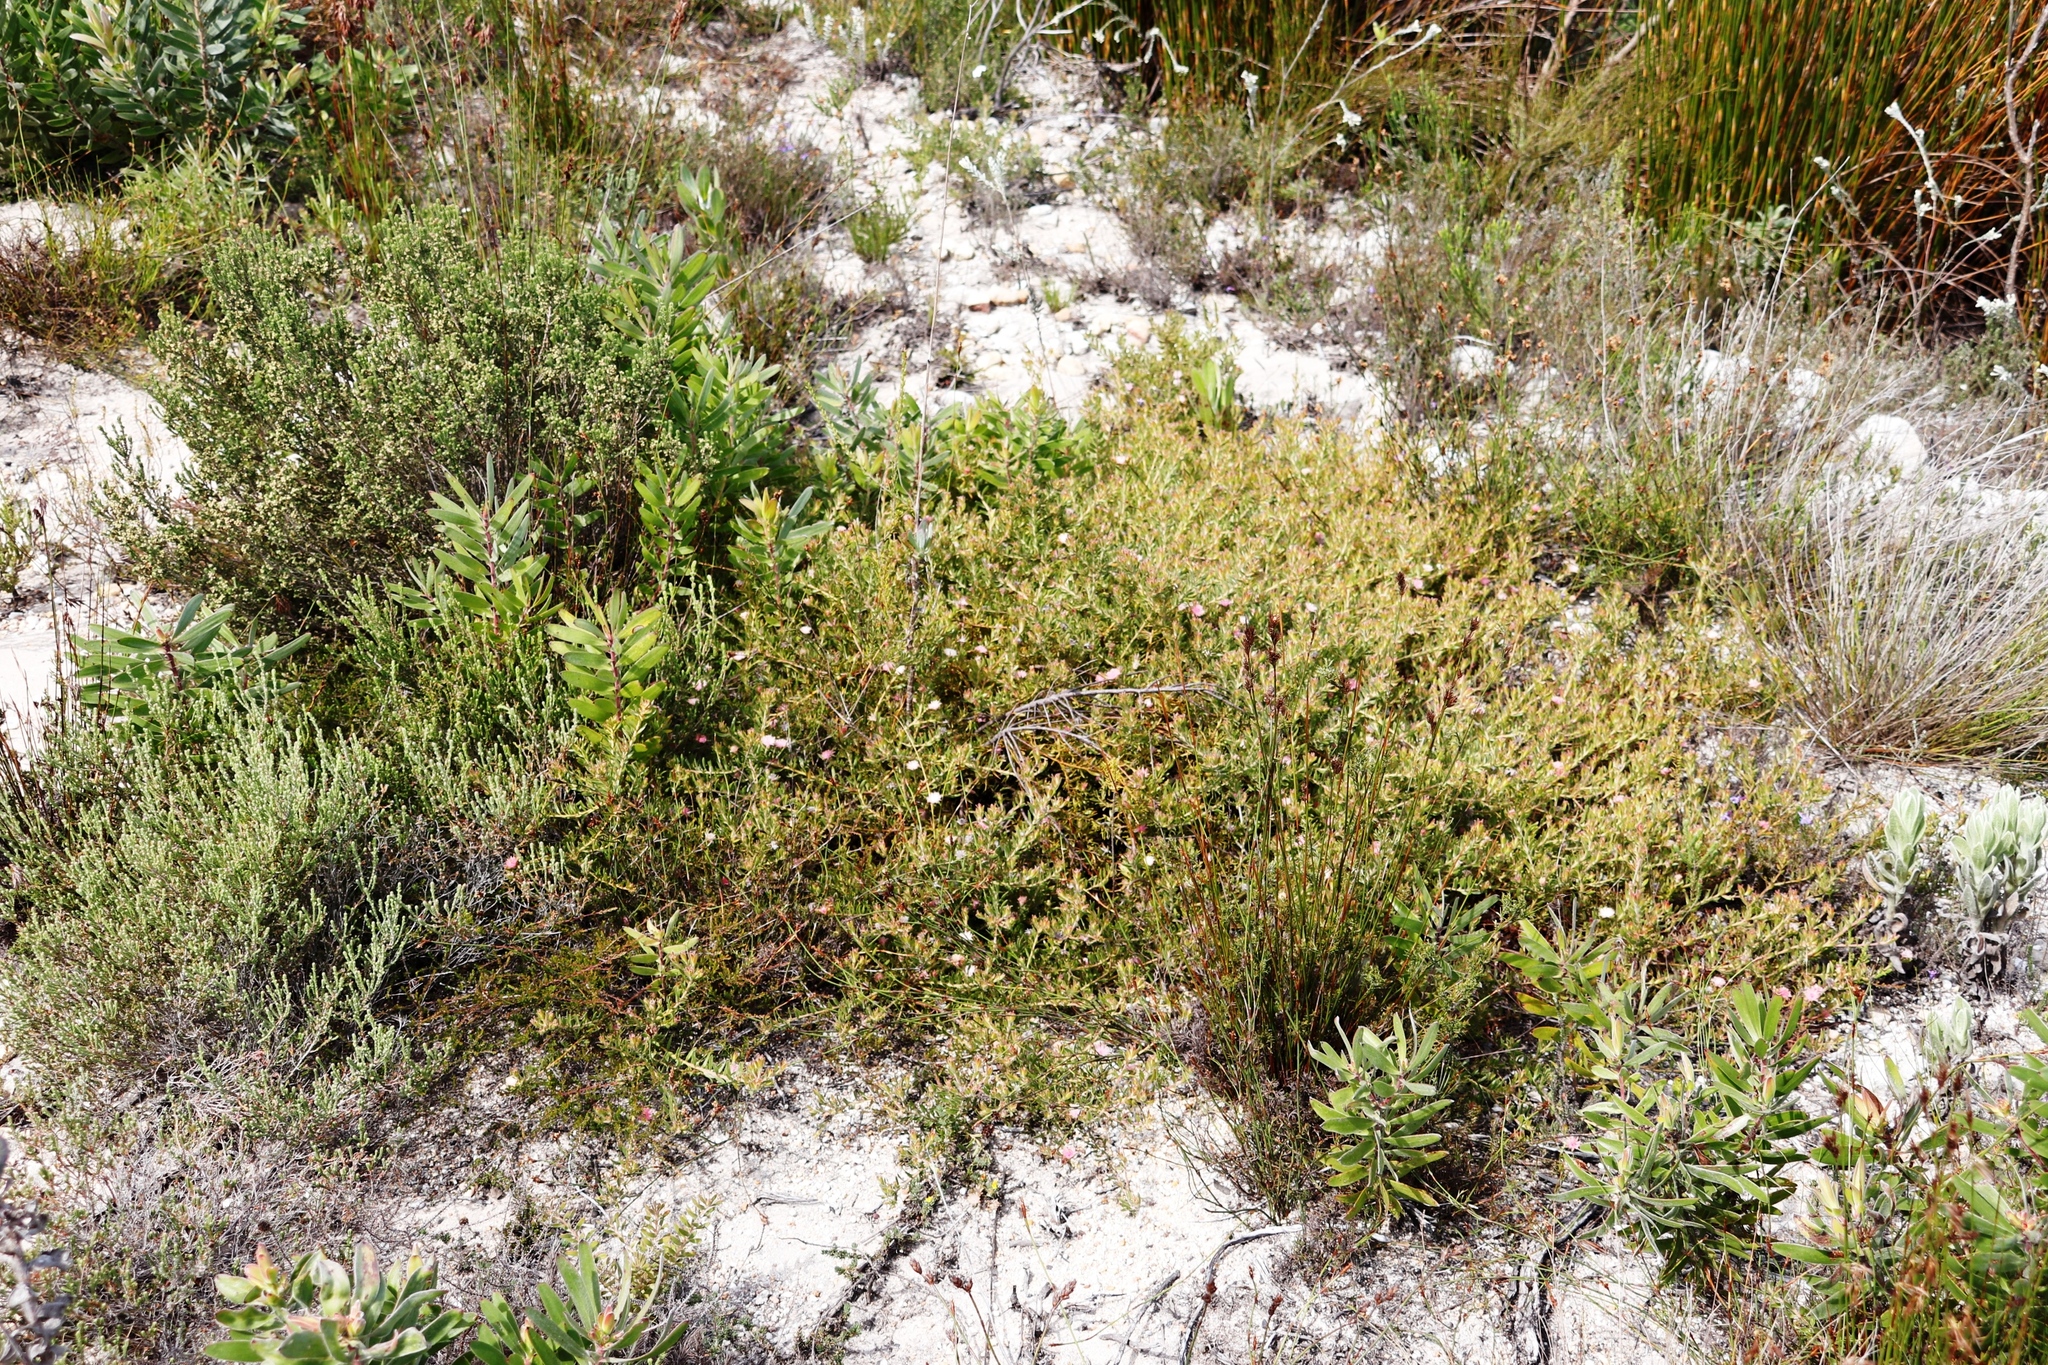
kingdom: Plantae
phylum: Tracheophyta
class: Magnoliopsida
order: Proteales
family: Proteaceae
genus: Diastella
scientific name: Diastella divaricata
